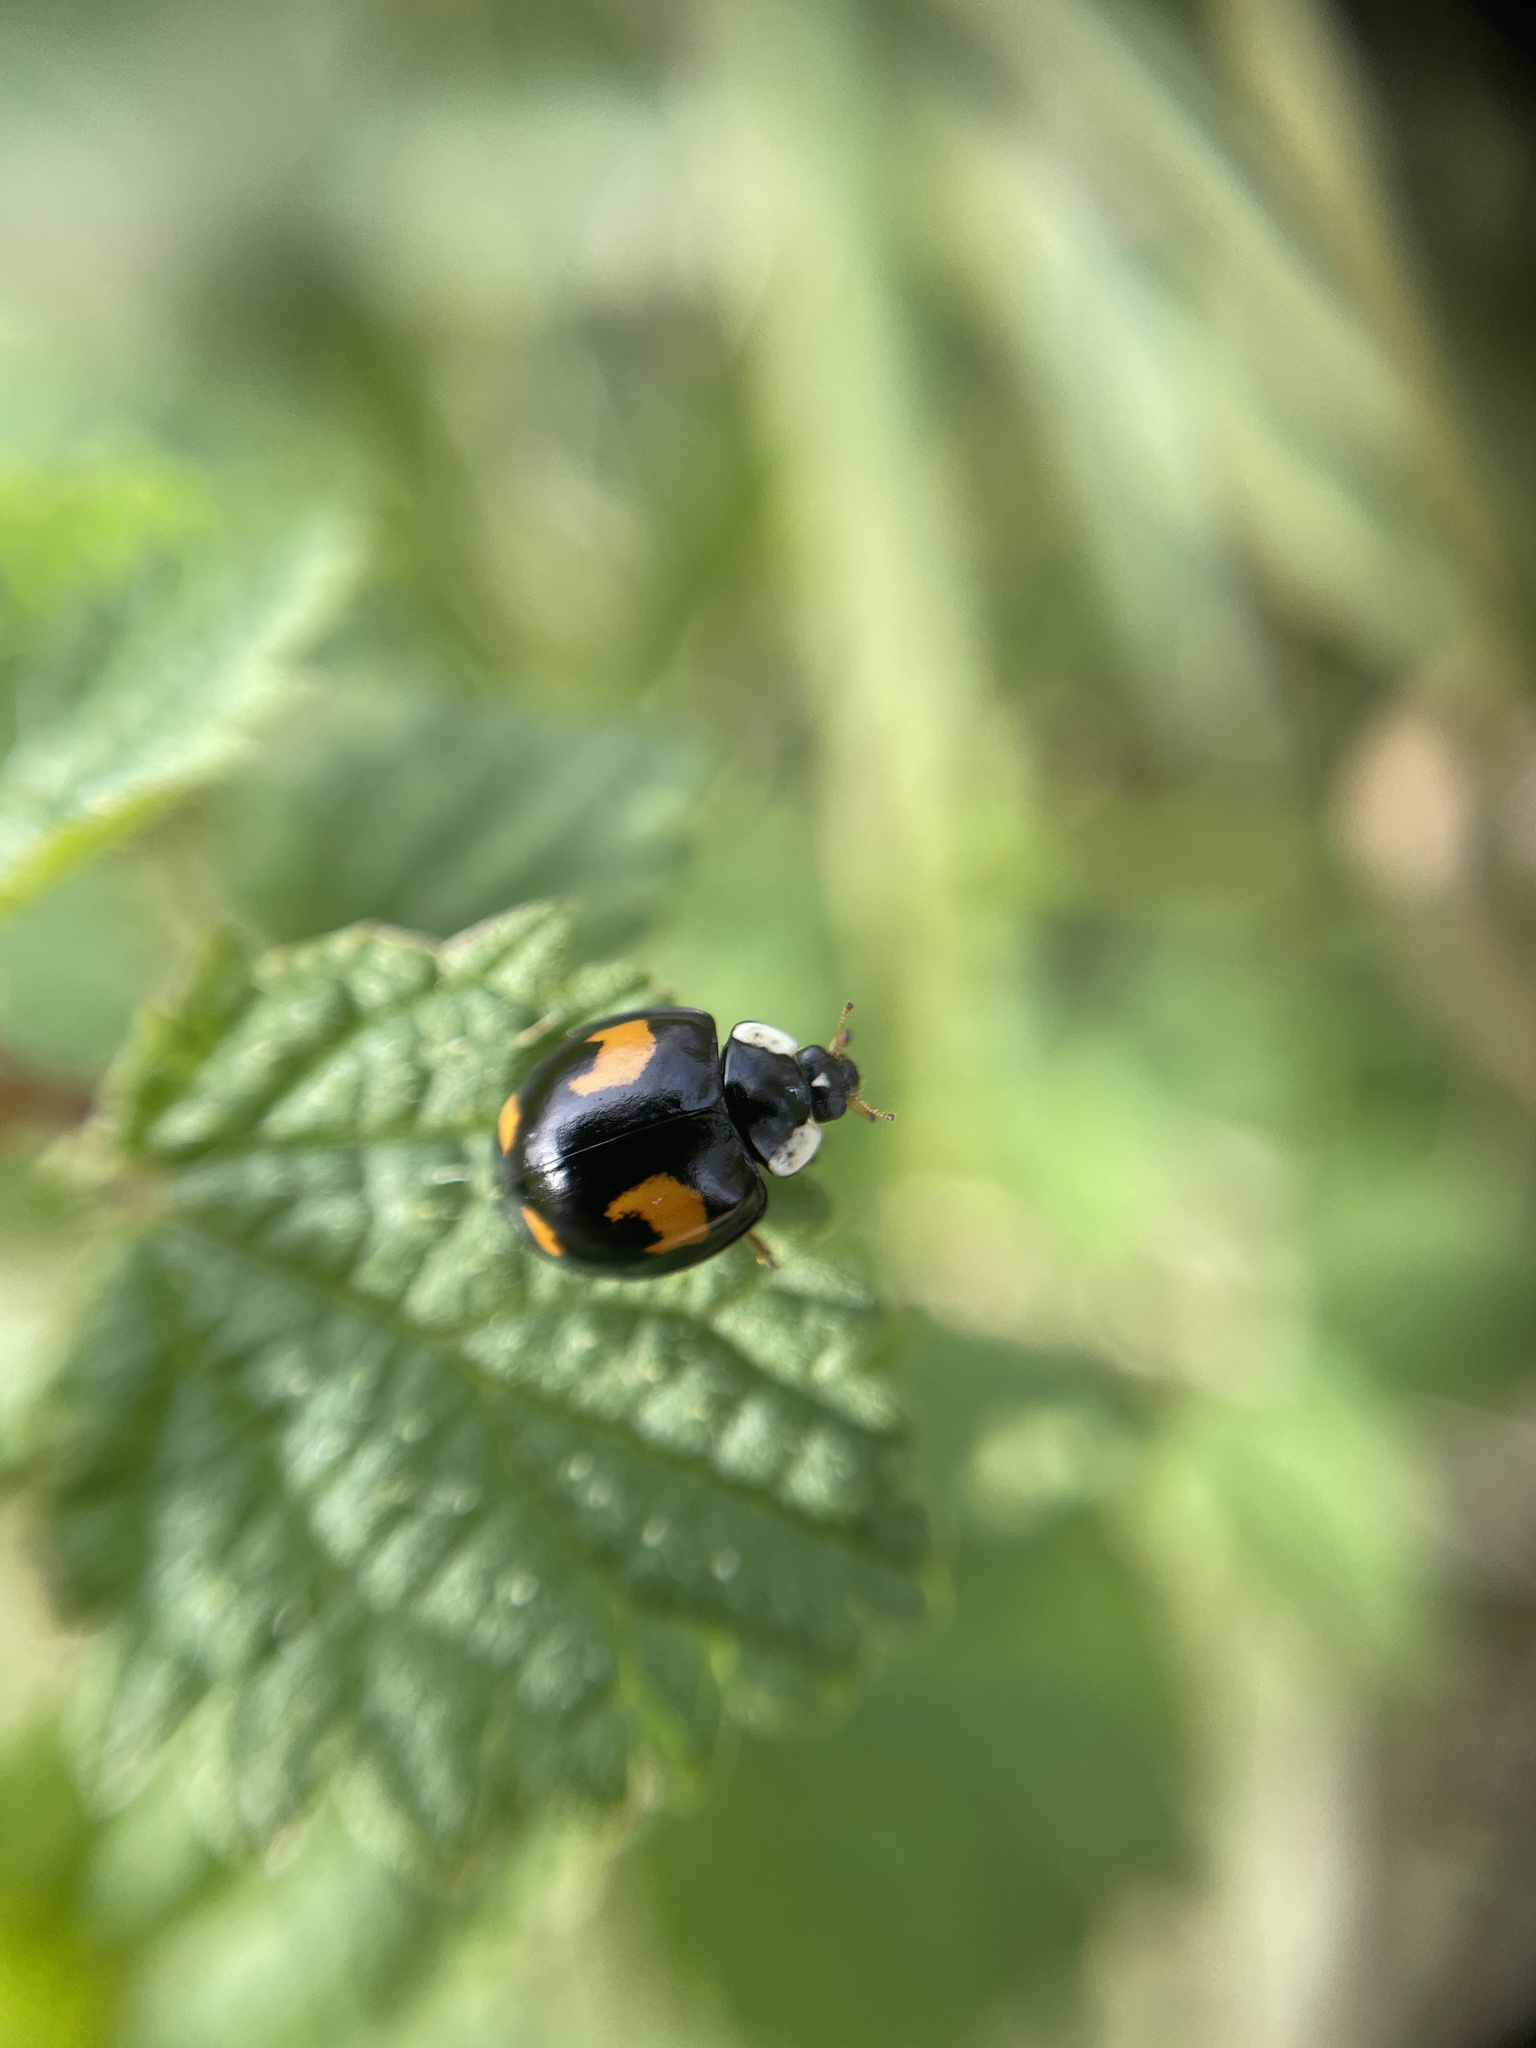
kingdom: Animalia
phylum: Arthropoda
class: Insecta
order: Coleoptera
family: Coccinellidae
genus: Harmonia
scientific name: Harmonia axyridis
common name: Harlequin ladybird
